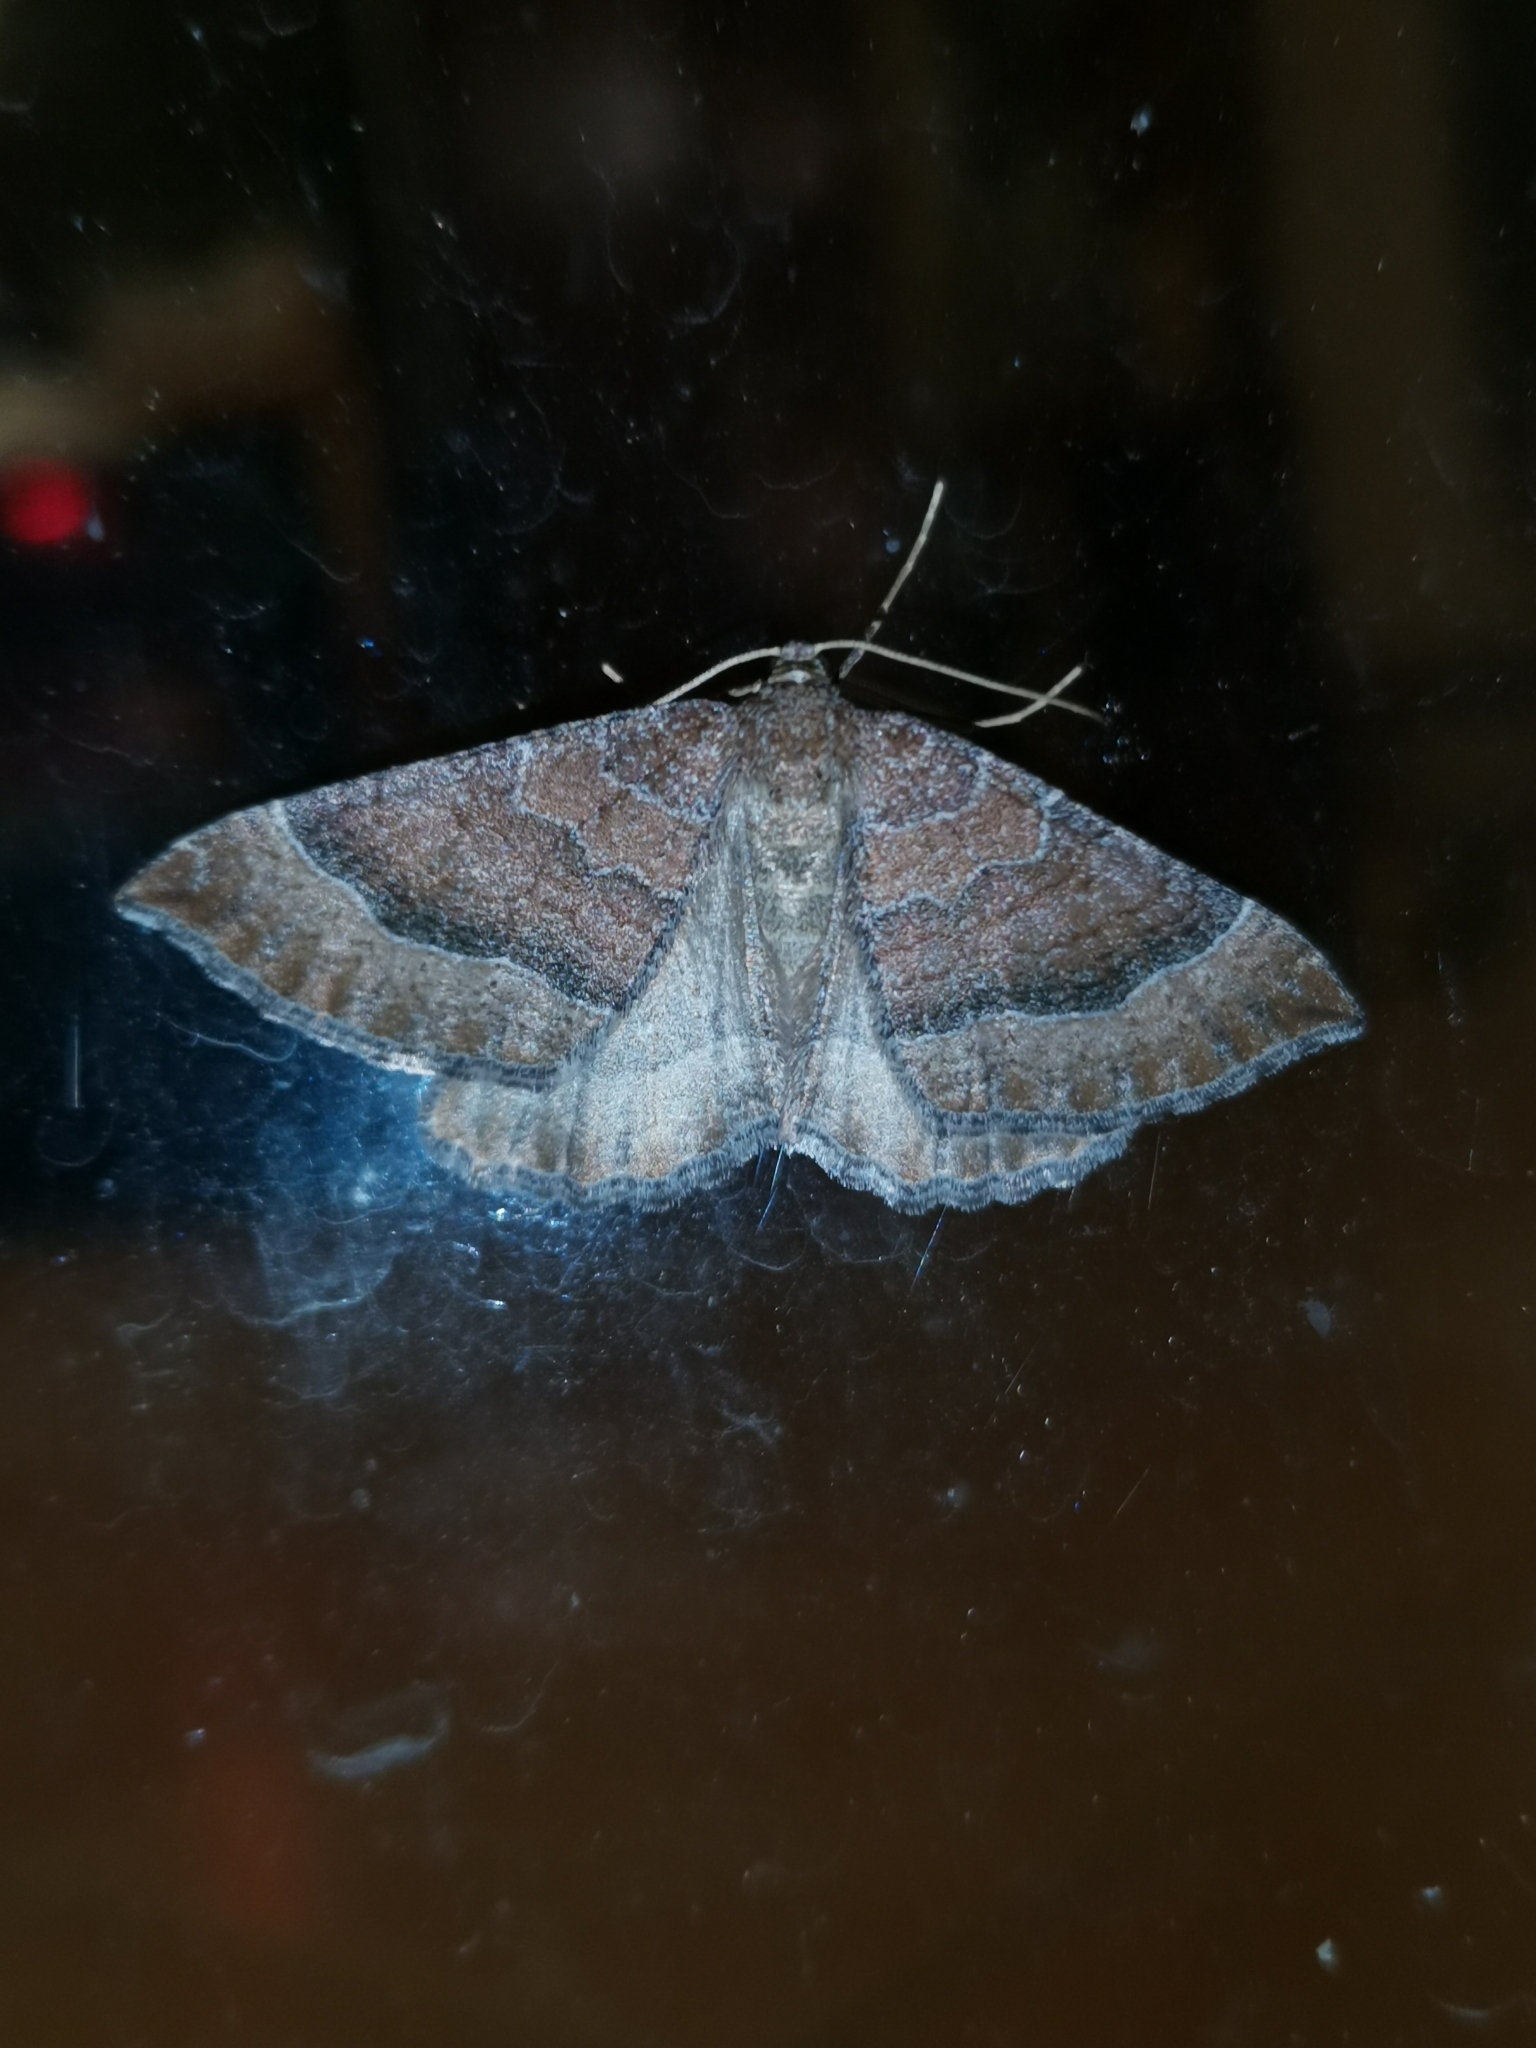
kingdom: Animalia
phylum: Arthropoda
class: Insecta
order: Lepidoptera
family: Geometridae
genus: Larentia
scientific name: Larentia clavaria
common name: Mallow
